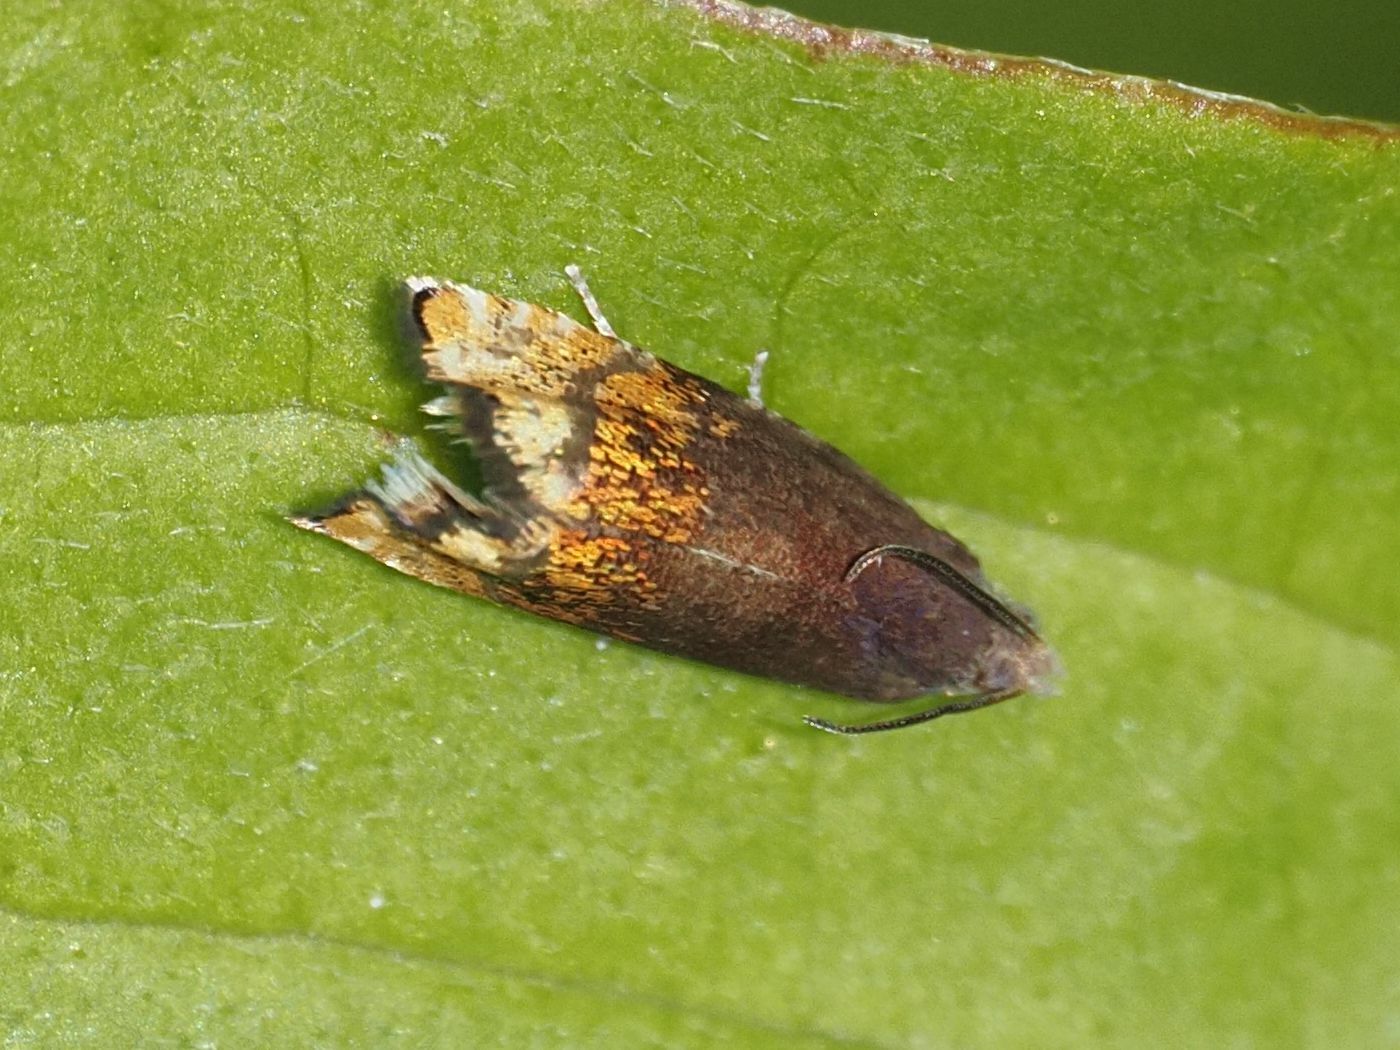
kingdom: Animalia
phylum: Arthropoda
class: Insecta
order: Lepidoptera
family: Tortricidae
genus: Pammene
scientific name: Pammene rhediella
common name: Fruitlet-mining tortrix
